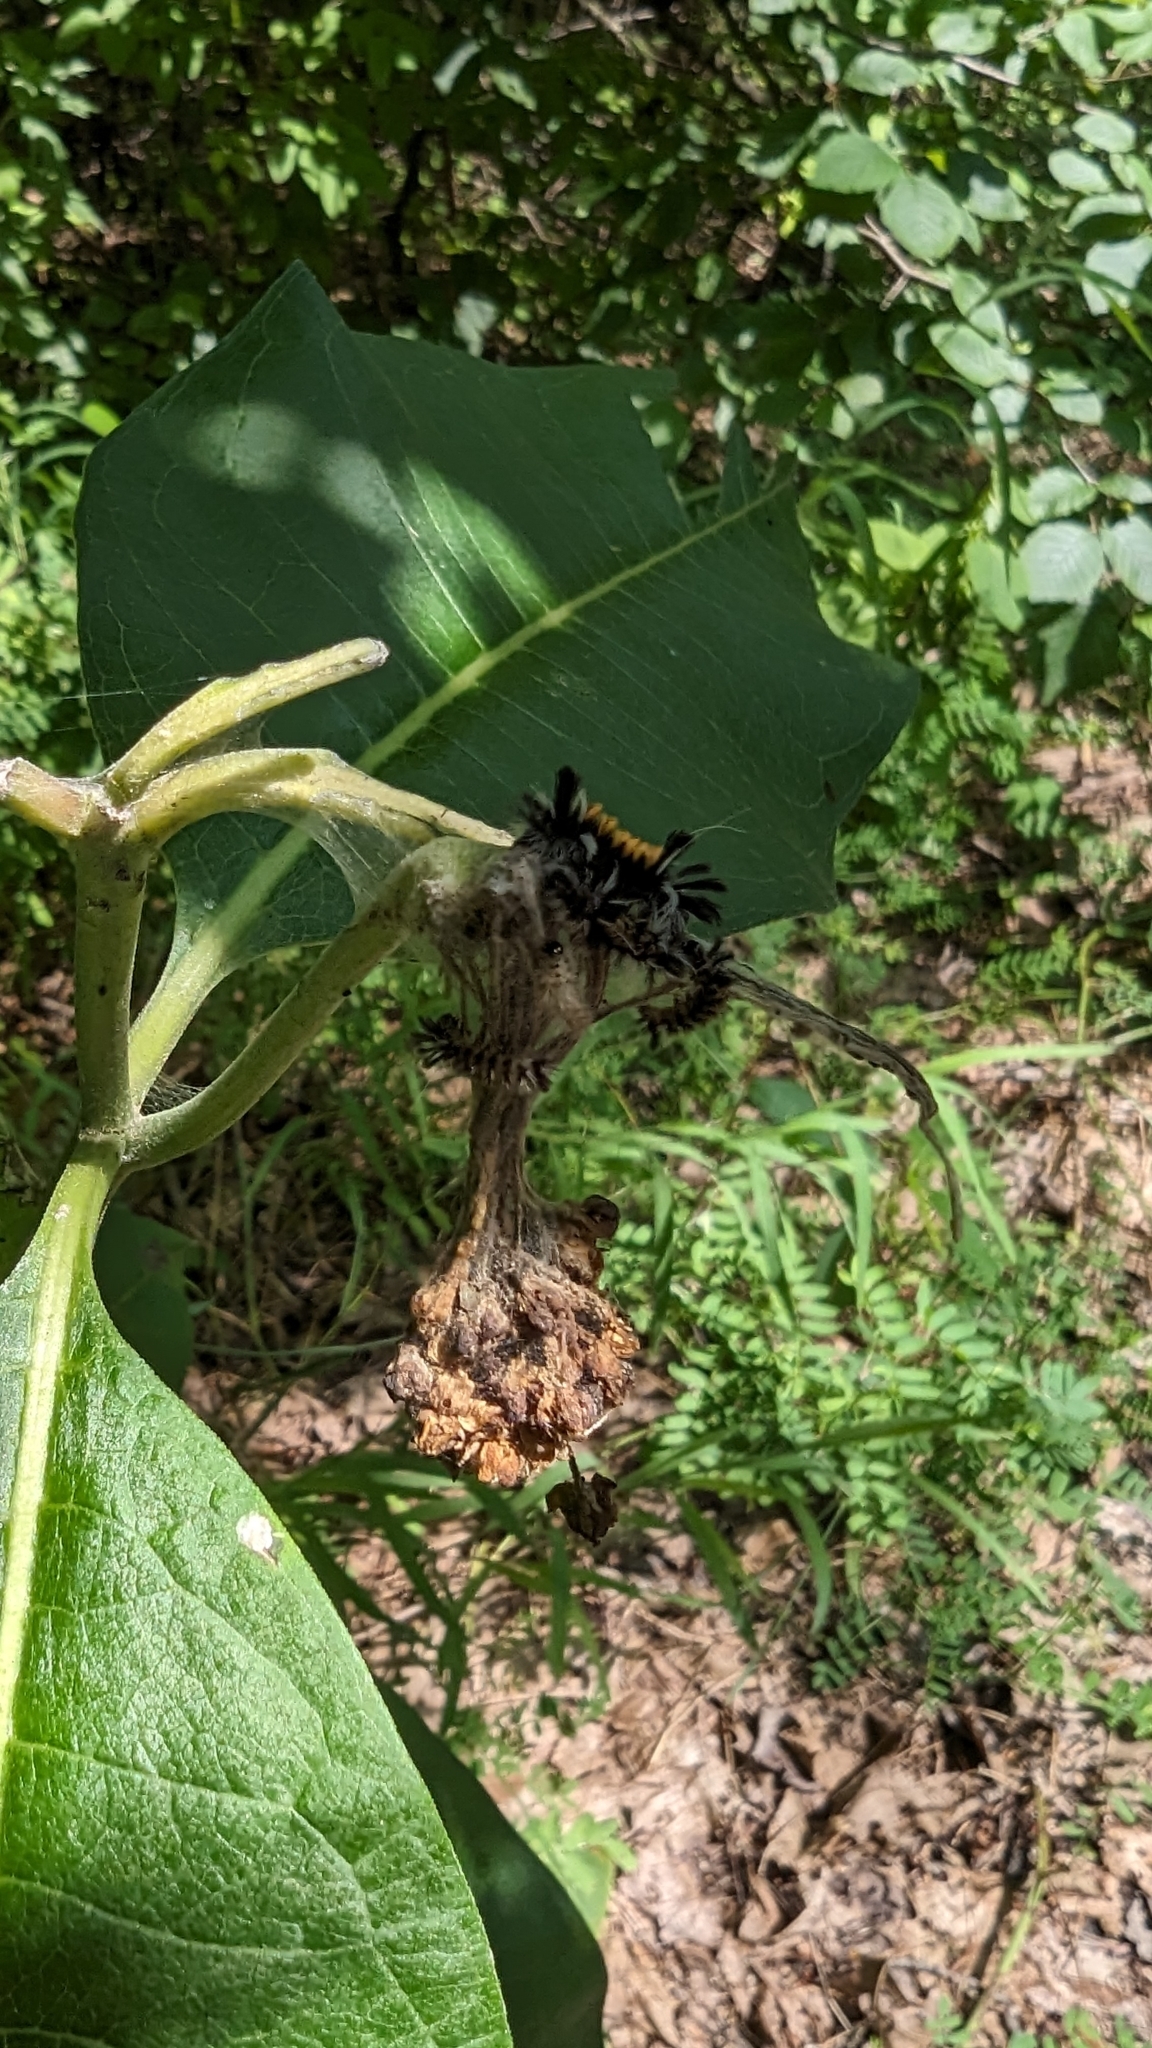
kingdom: Animalia
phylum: Arthropoda
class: Insecta
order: Lepidoptera
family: Erebidae
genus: Euchaetes
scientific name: Euchaetes egle
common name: Milkweed tussock moth
